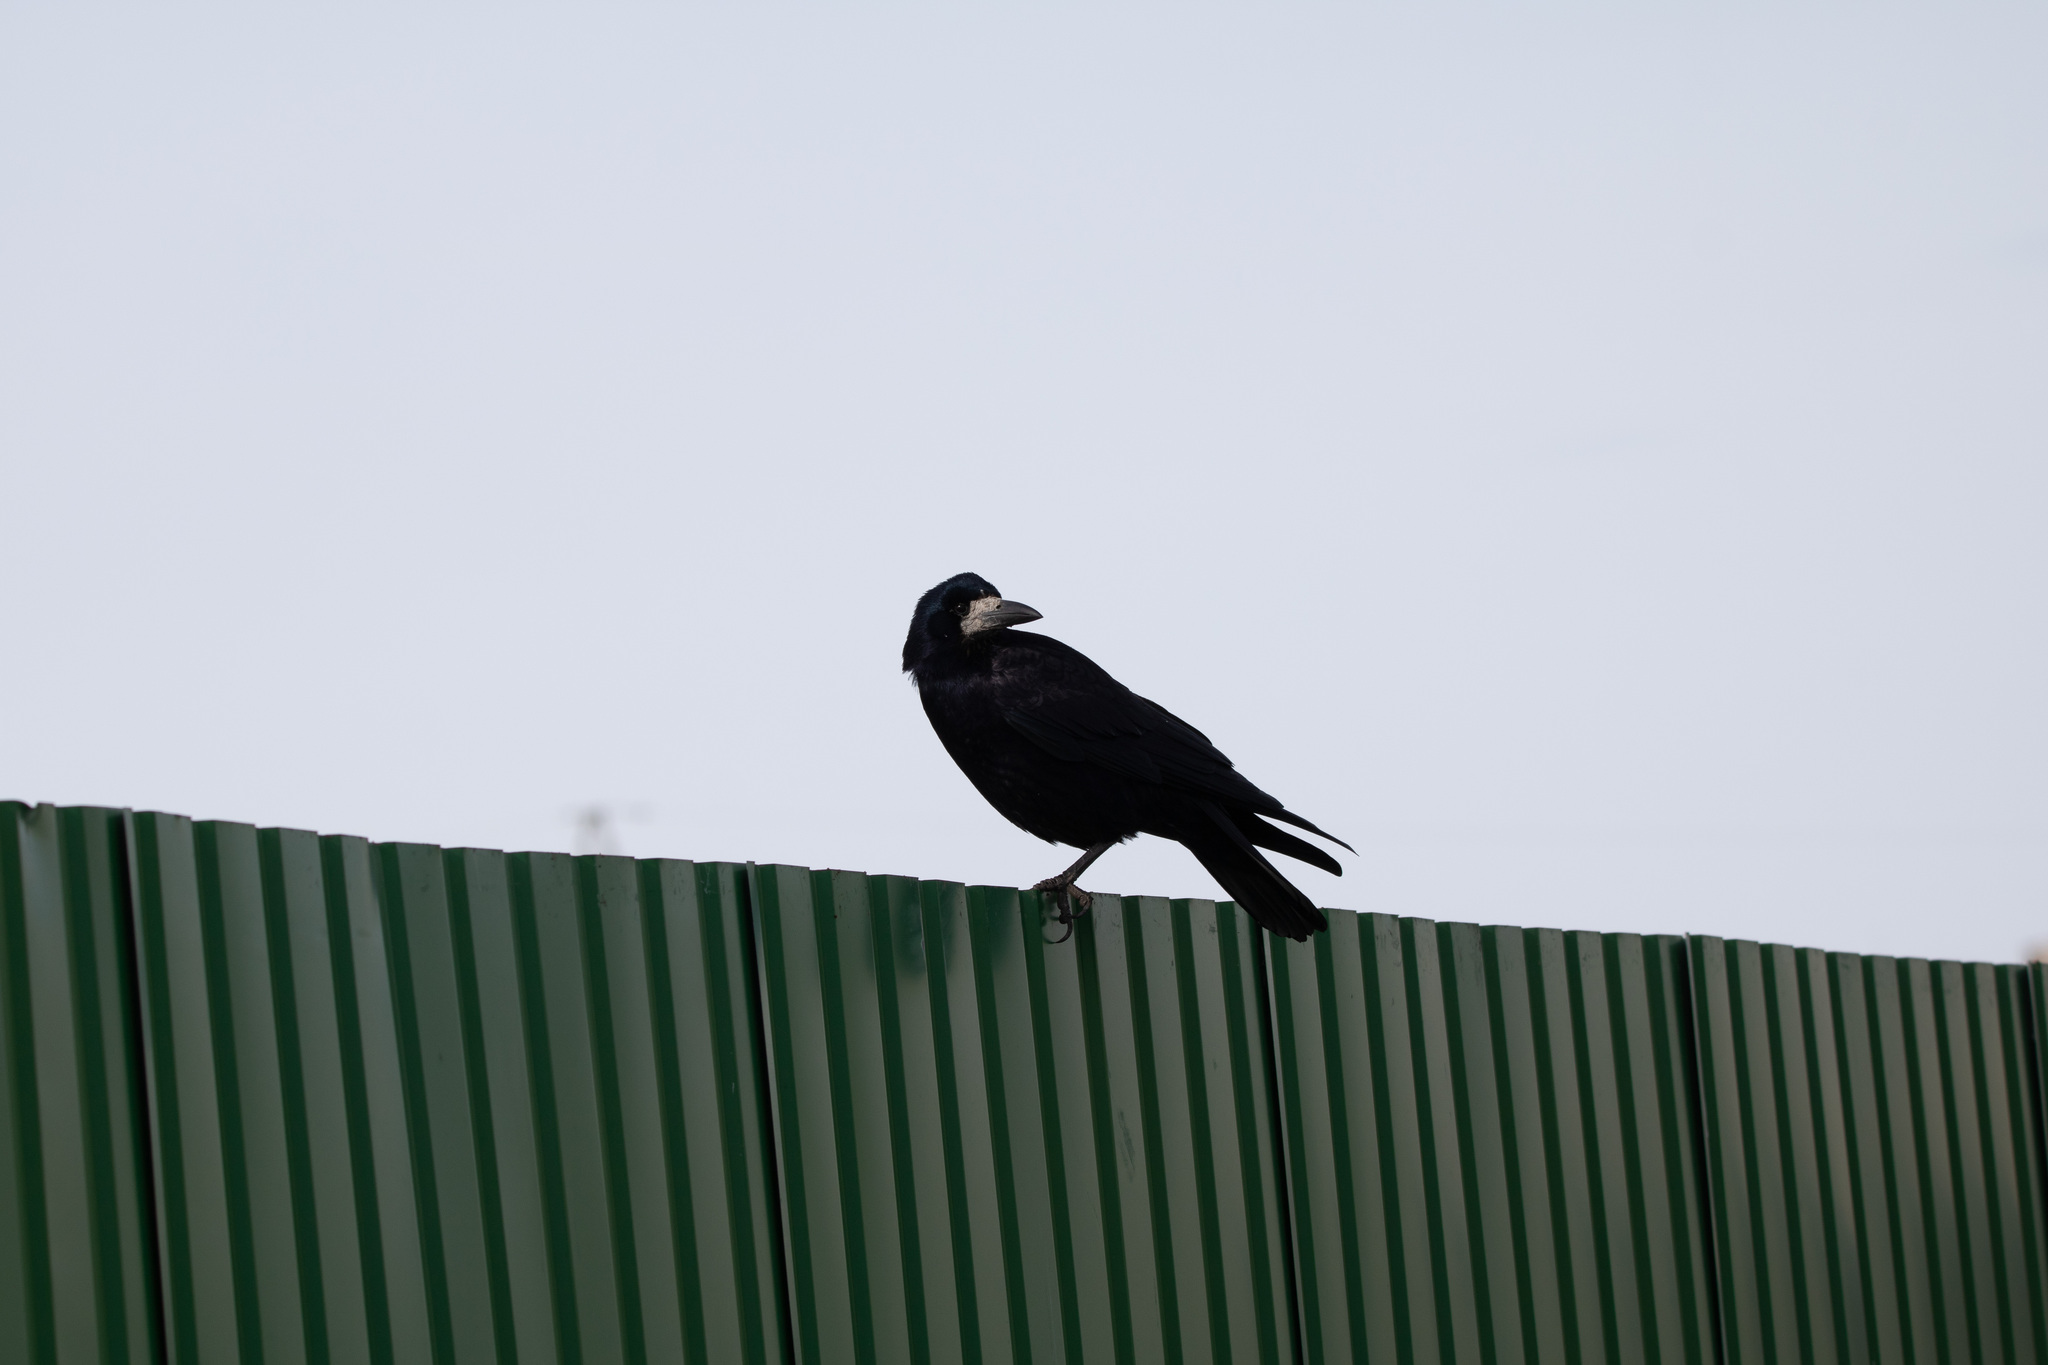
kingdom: Animalia
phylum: Chordata
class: Aves
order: Passeriformes
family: Corvidae
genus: Corvus
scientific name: Corvus frugilegus
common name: Rook
